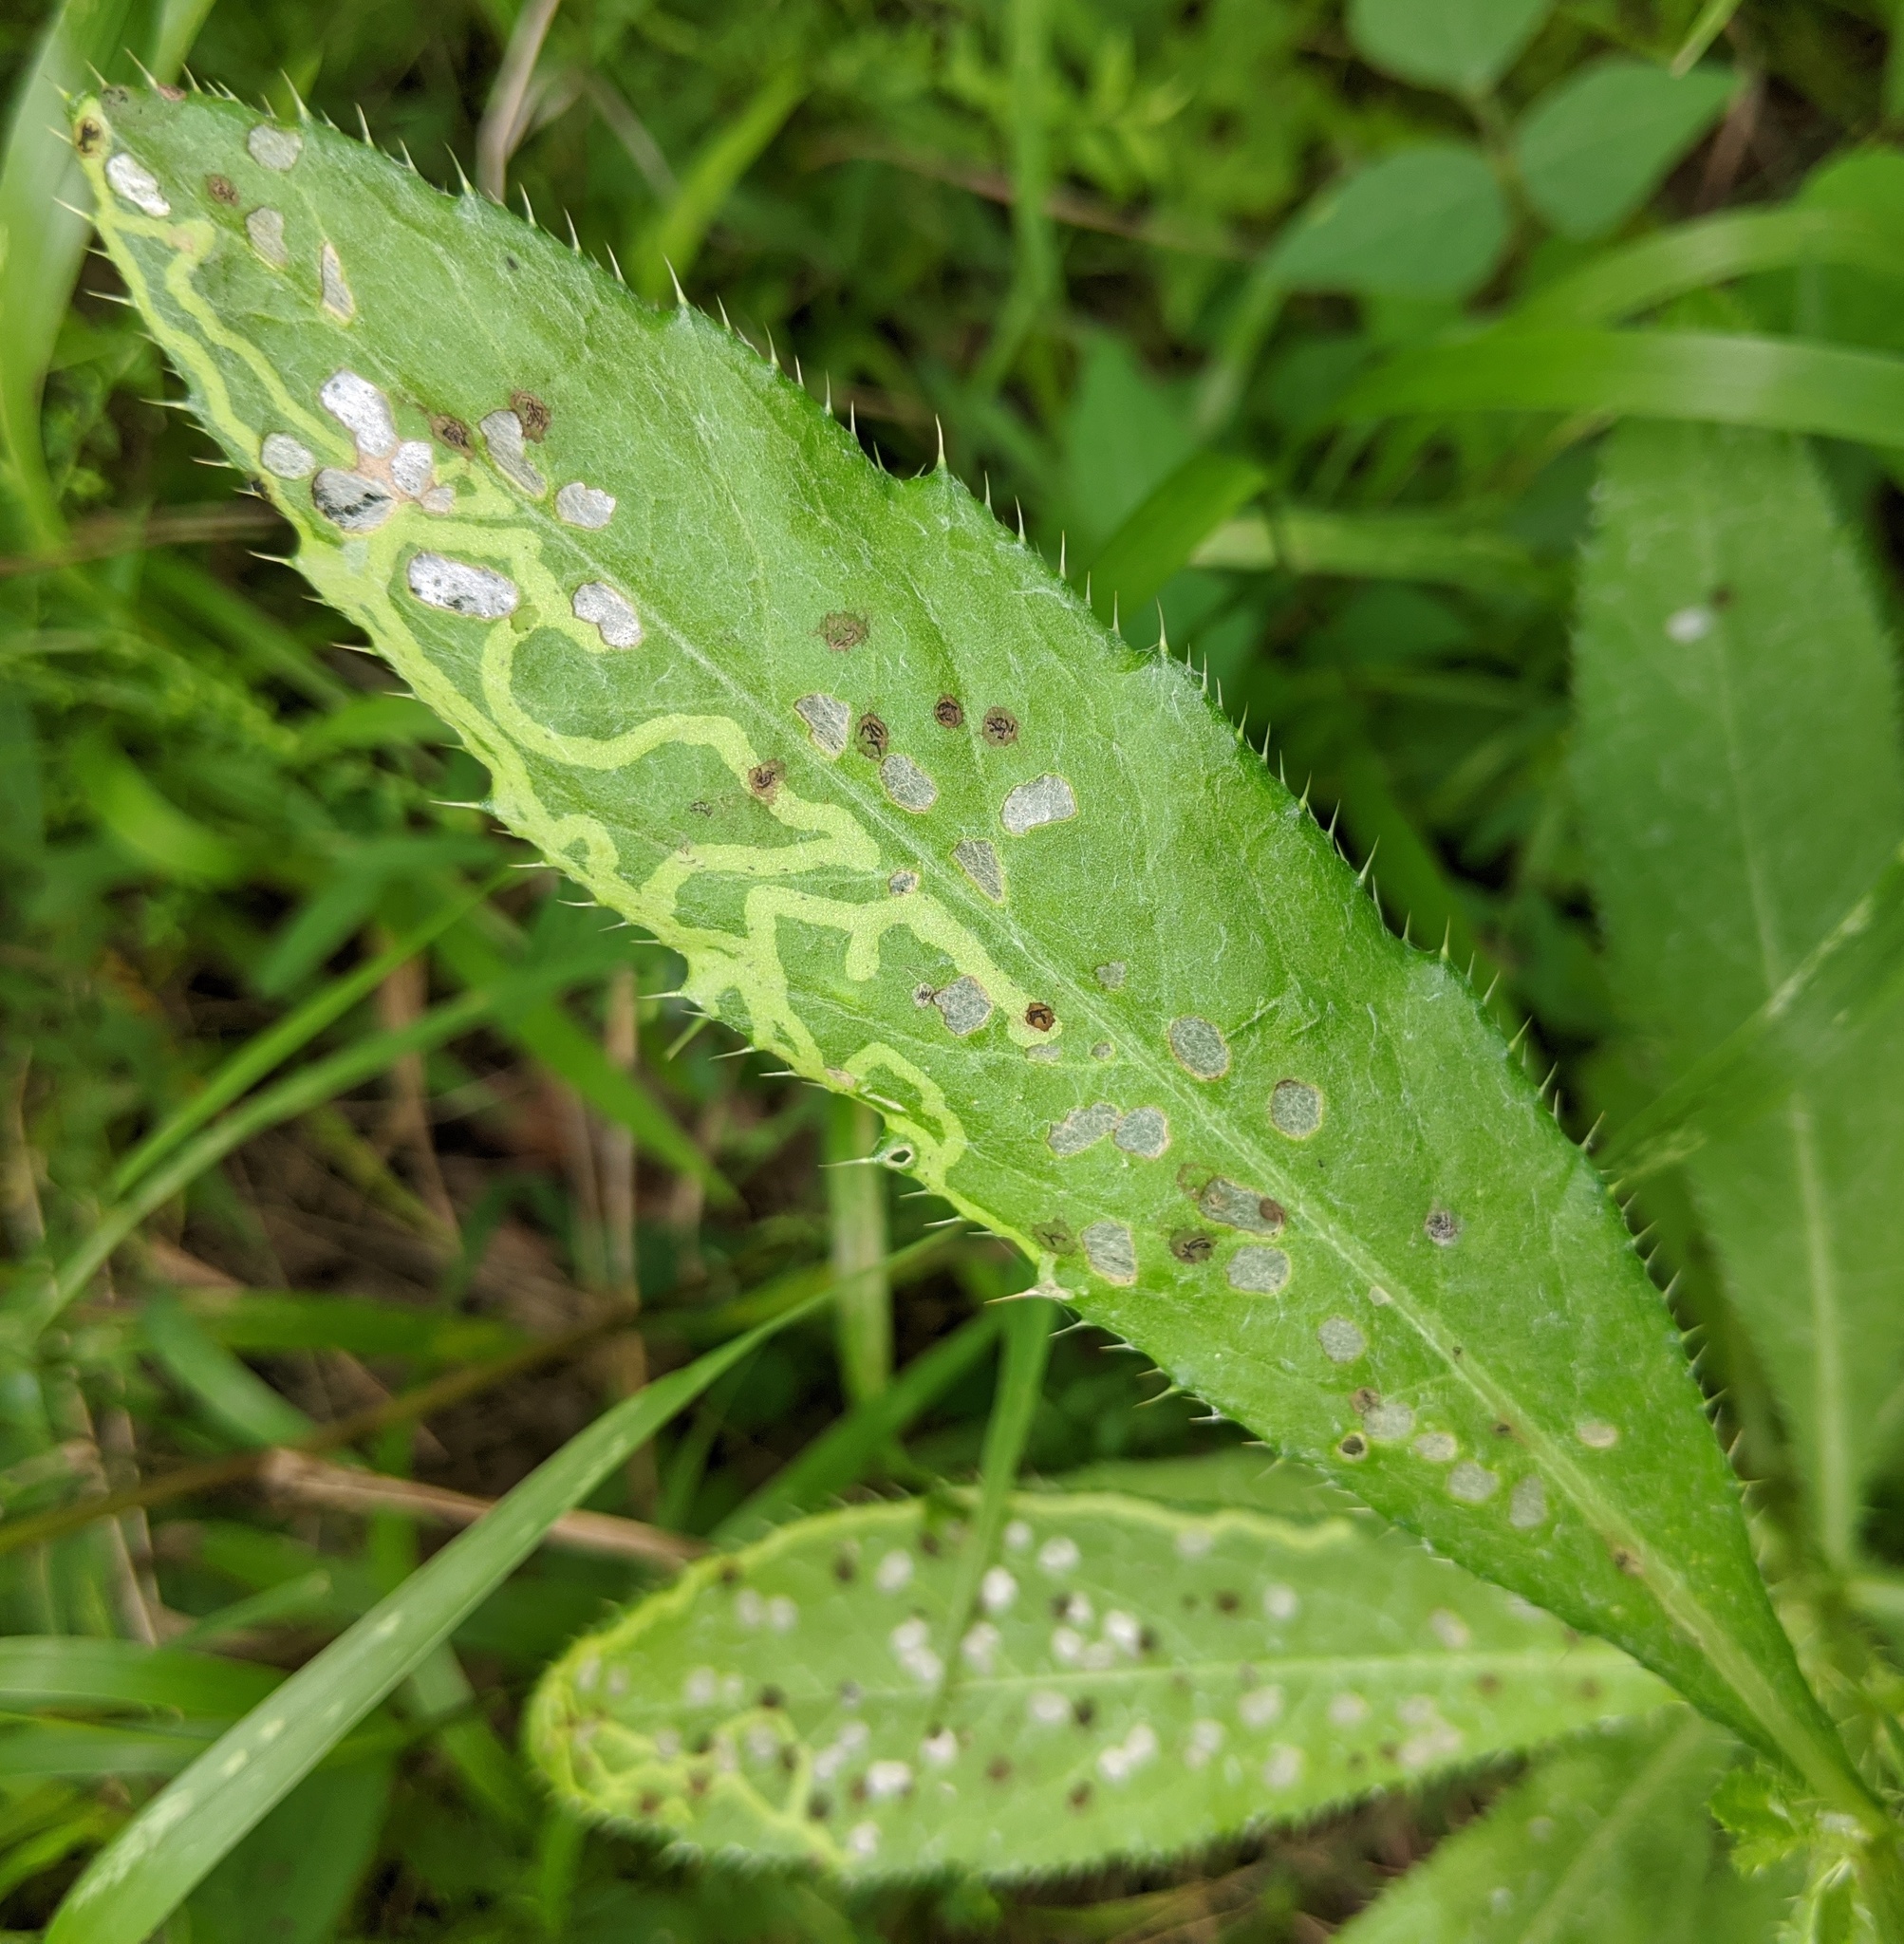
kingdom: Animalia
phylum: Arthropoda
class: Insecta
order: Coleoptera
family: Chrysomelidae
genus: Cassida
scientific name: Cassida rubiginosa
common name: Thistle tortoise beetle
